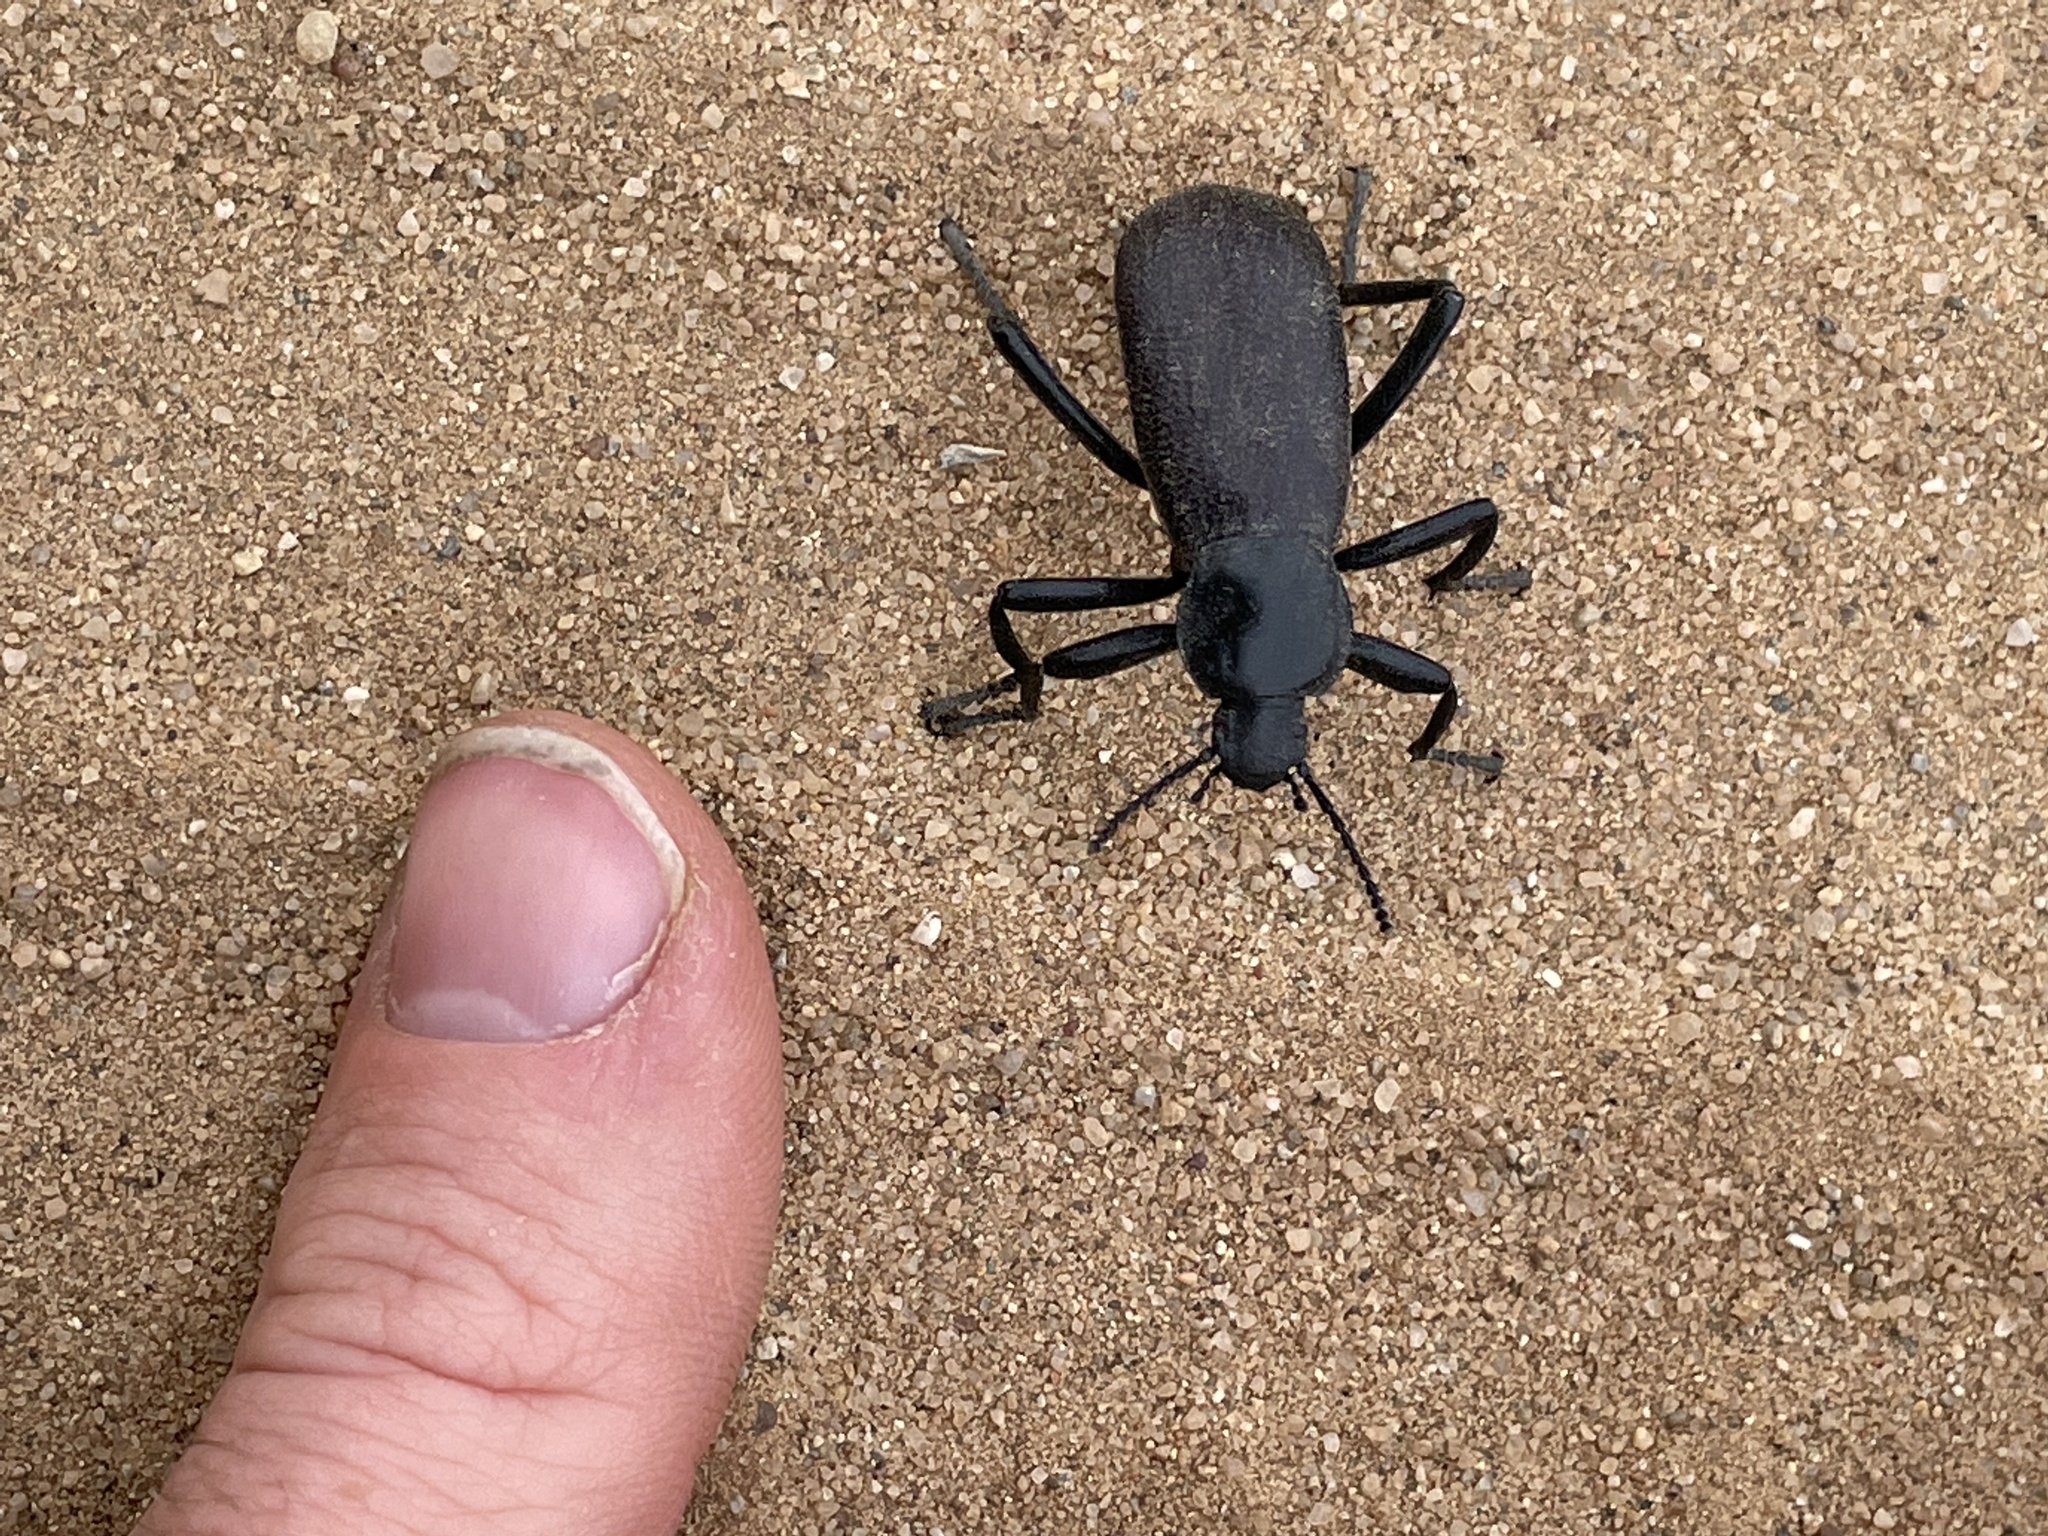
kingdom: Animalia
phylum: Arthropoda
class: Insecta
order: Coleoptera
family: Tenebrionidae
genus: Eleodes
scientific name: Eleodes obscura
